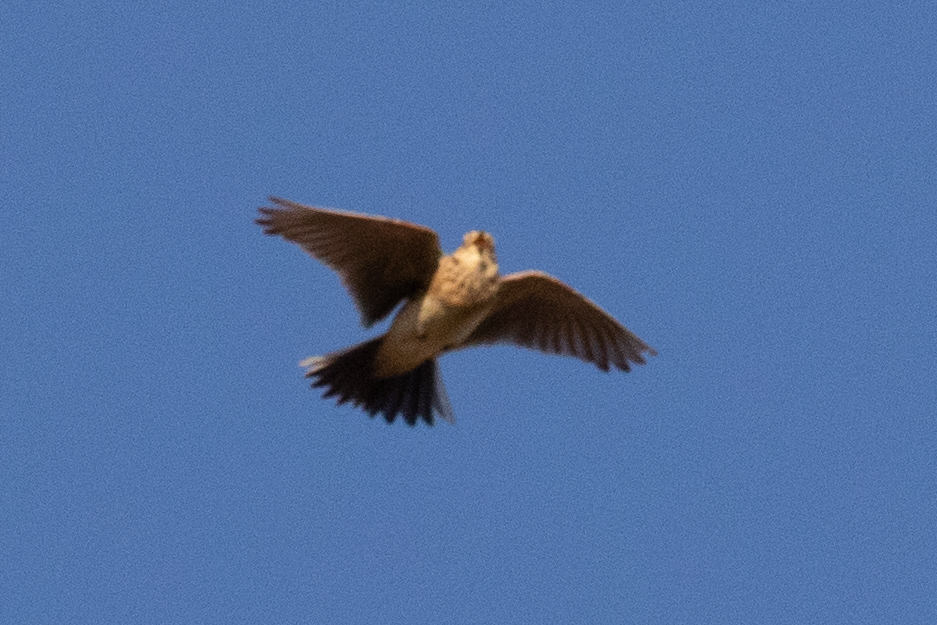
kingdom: Animalia
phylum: Chordata
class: Aves
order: Passeriformes
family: Alaudidae
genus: Alauda
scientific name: Alauda arvensis
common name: Eurasian skylark
